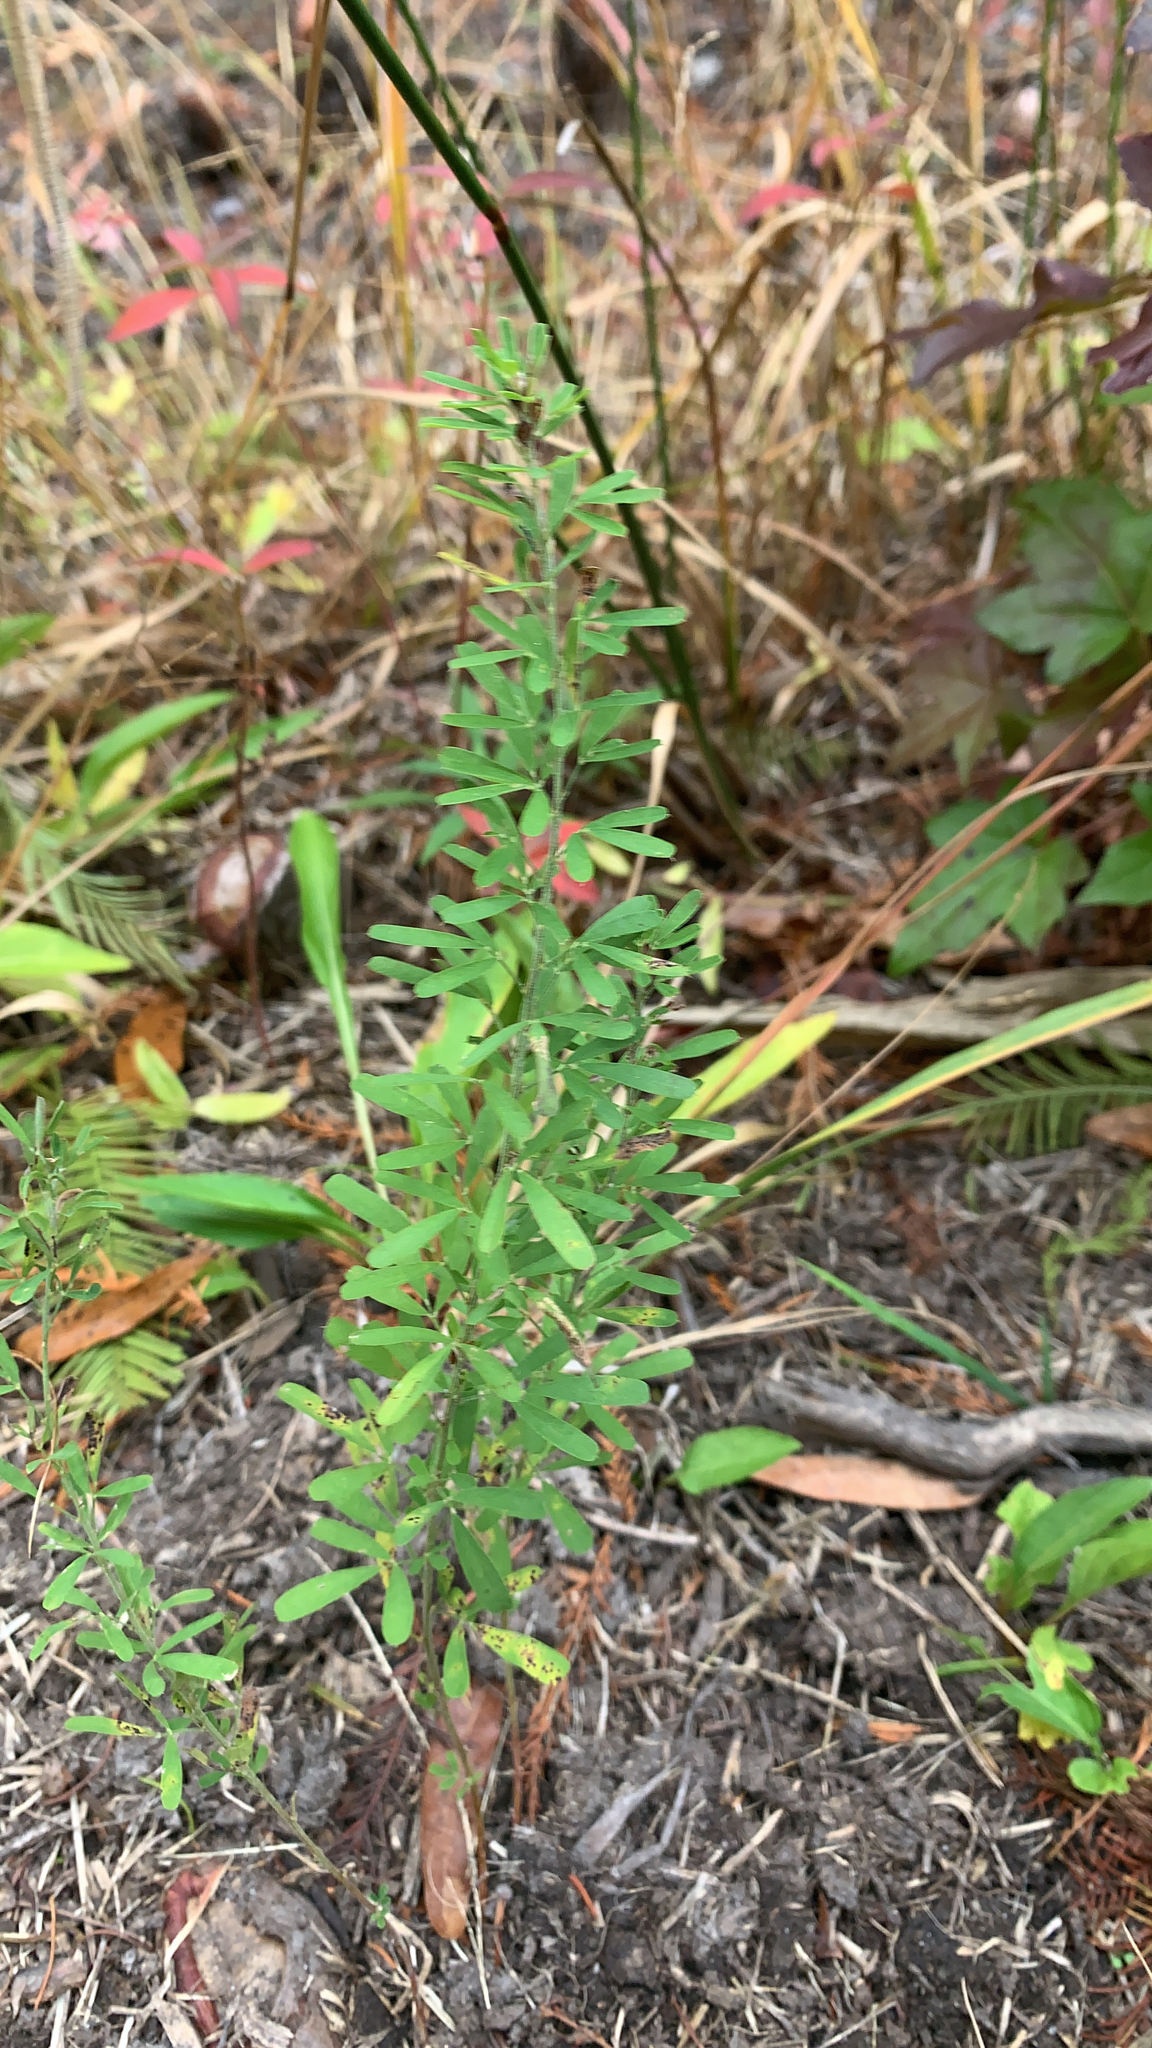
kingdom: Plantae
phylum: Tracheophyta
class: Magnoliopsida
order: Fabales
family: Fabaceae
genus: Lespedeza
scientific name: Lespedeza cuneata
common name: Chinese bush-clover
